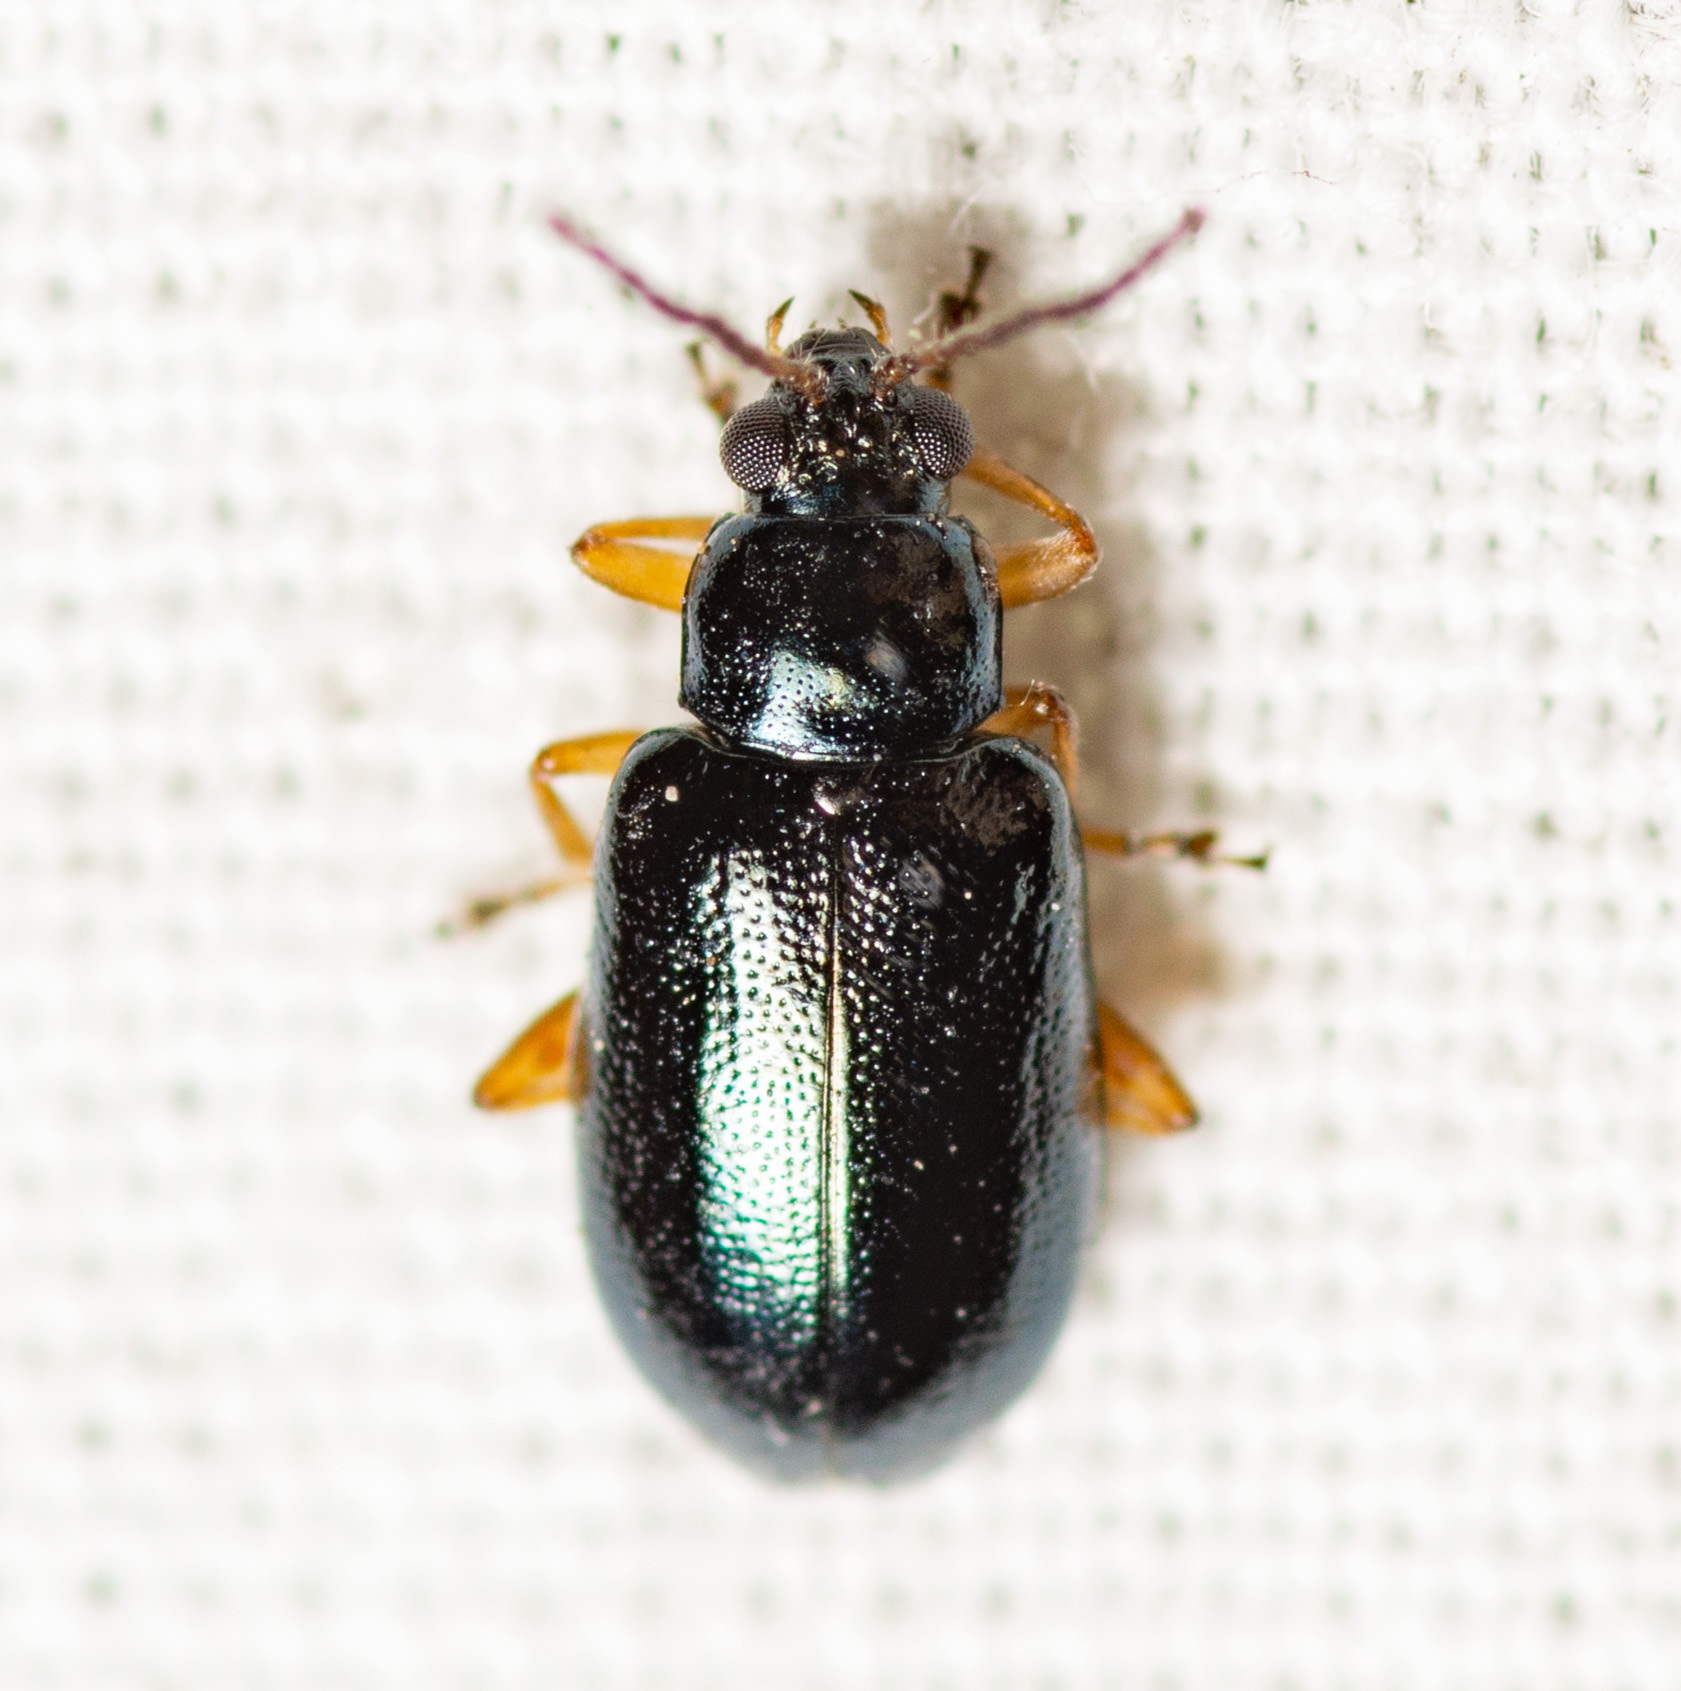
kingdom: Animalia
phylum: Arthropoda
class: Insecta
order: Coleoptera
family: Chrysomelidae
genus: Lysathia
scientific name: Lysathia ludoviciana
